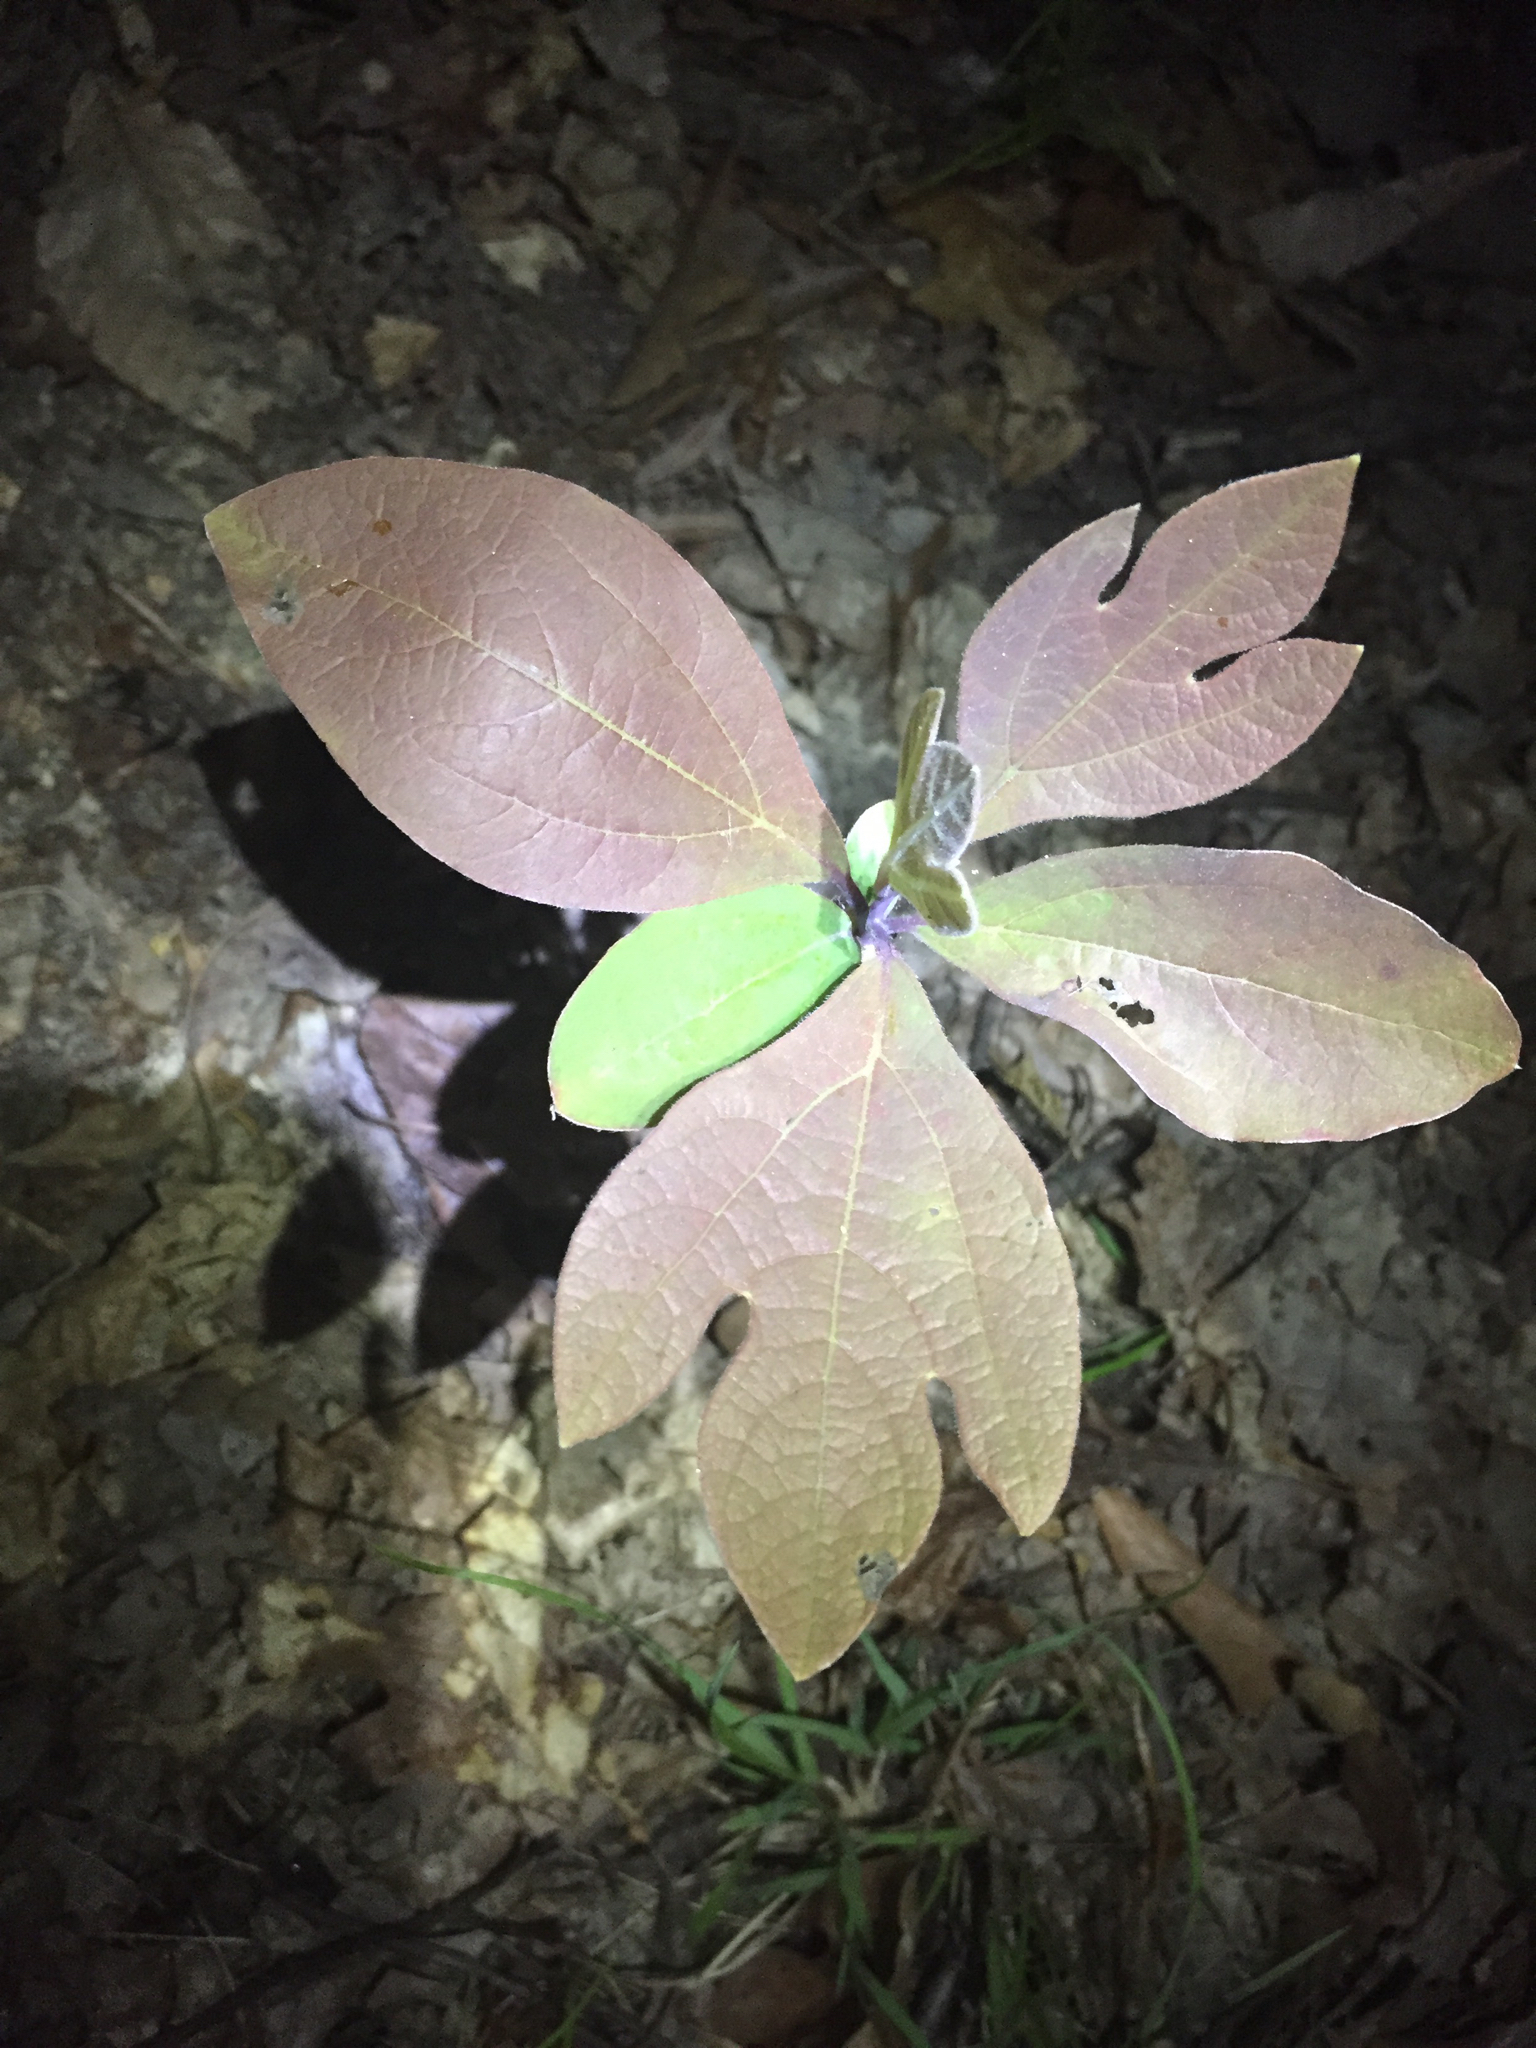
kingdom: Plantae
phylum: Tracheophyta
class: Magnoliopsida
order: Laurales
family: Lauraceae
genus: Sassafras
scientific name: Sassafras albidum
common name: Sassafras
